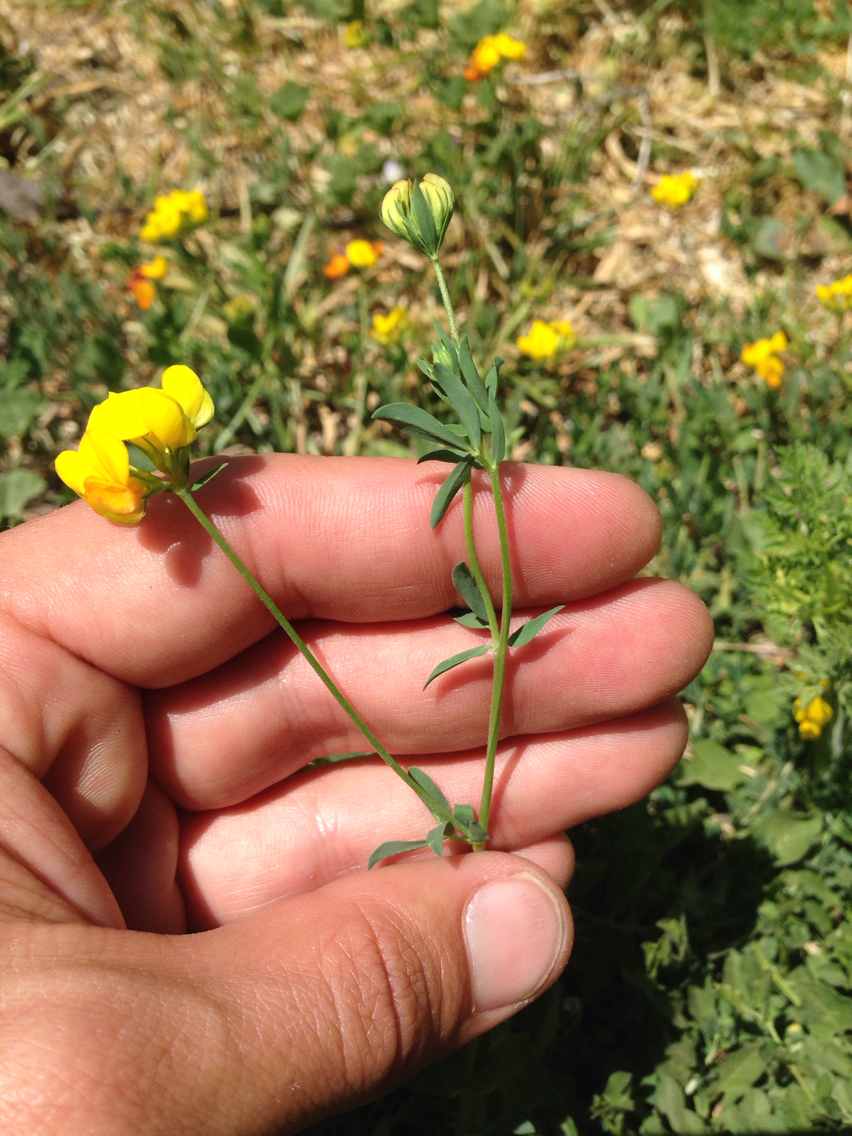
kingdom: Plantae
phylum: Tracheophyta
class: Magnoliopsida
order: Fabales
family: Fabaceae
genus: Lotus
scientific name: Lotus corniculatus
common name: Common bird's-foot-trefoil
